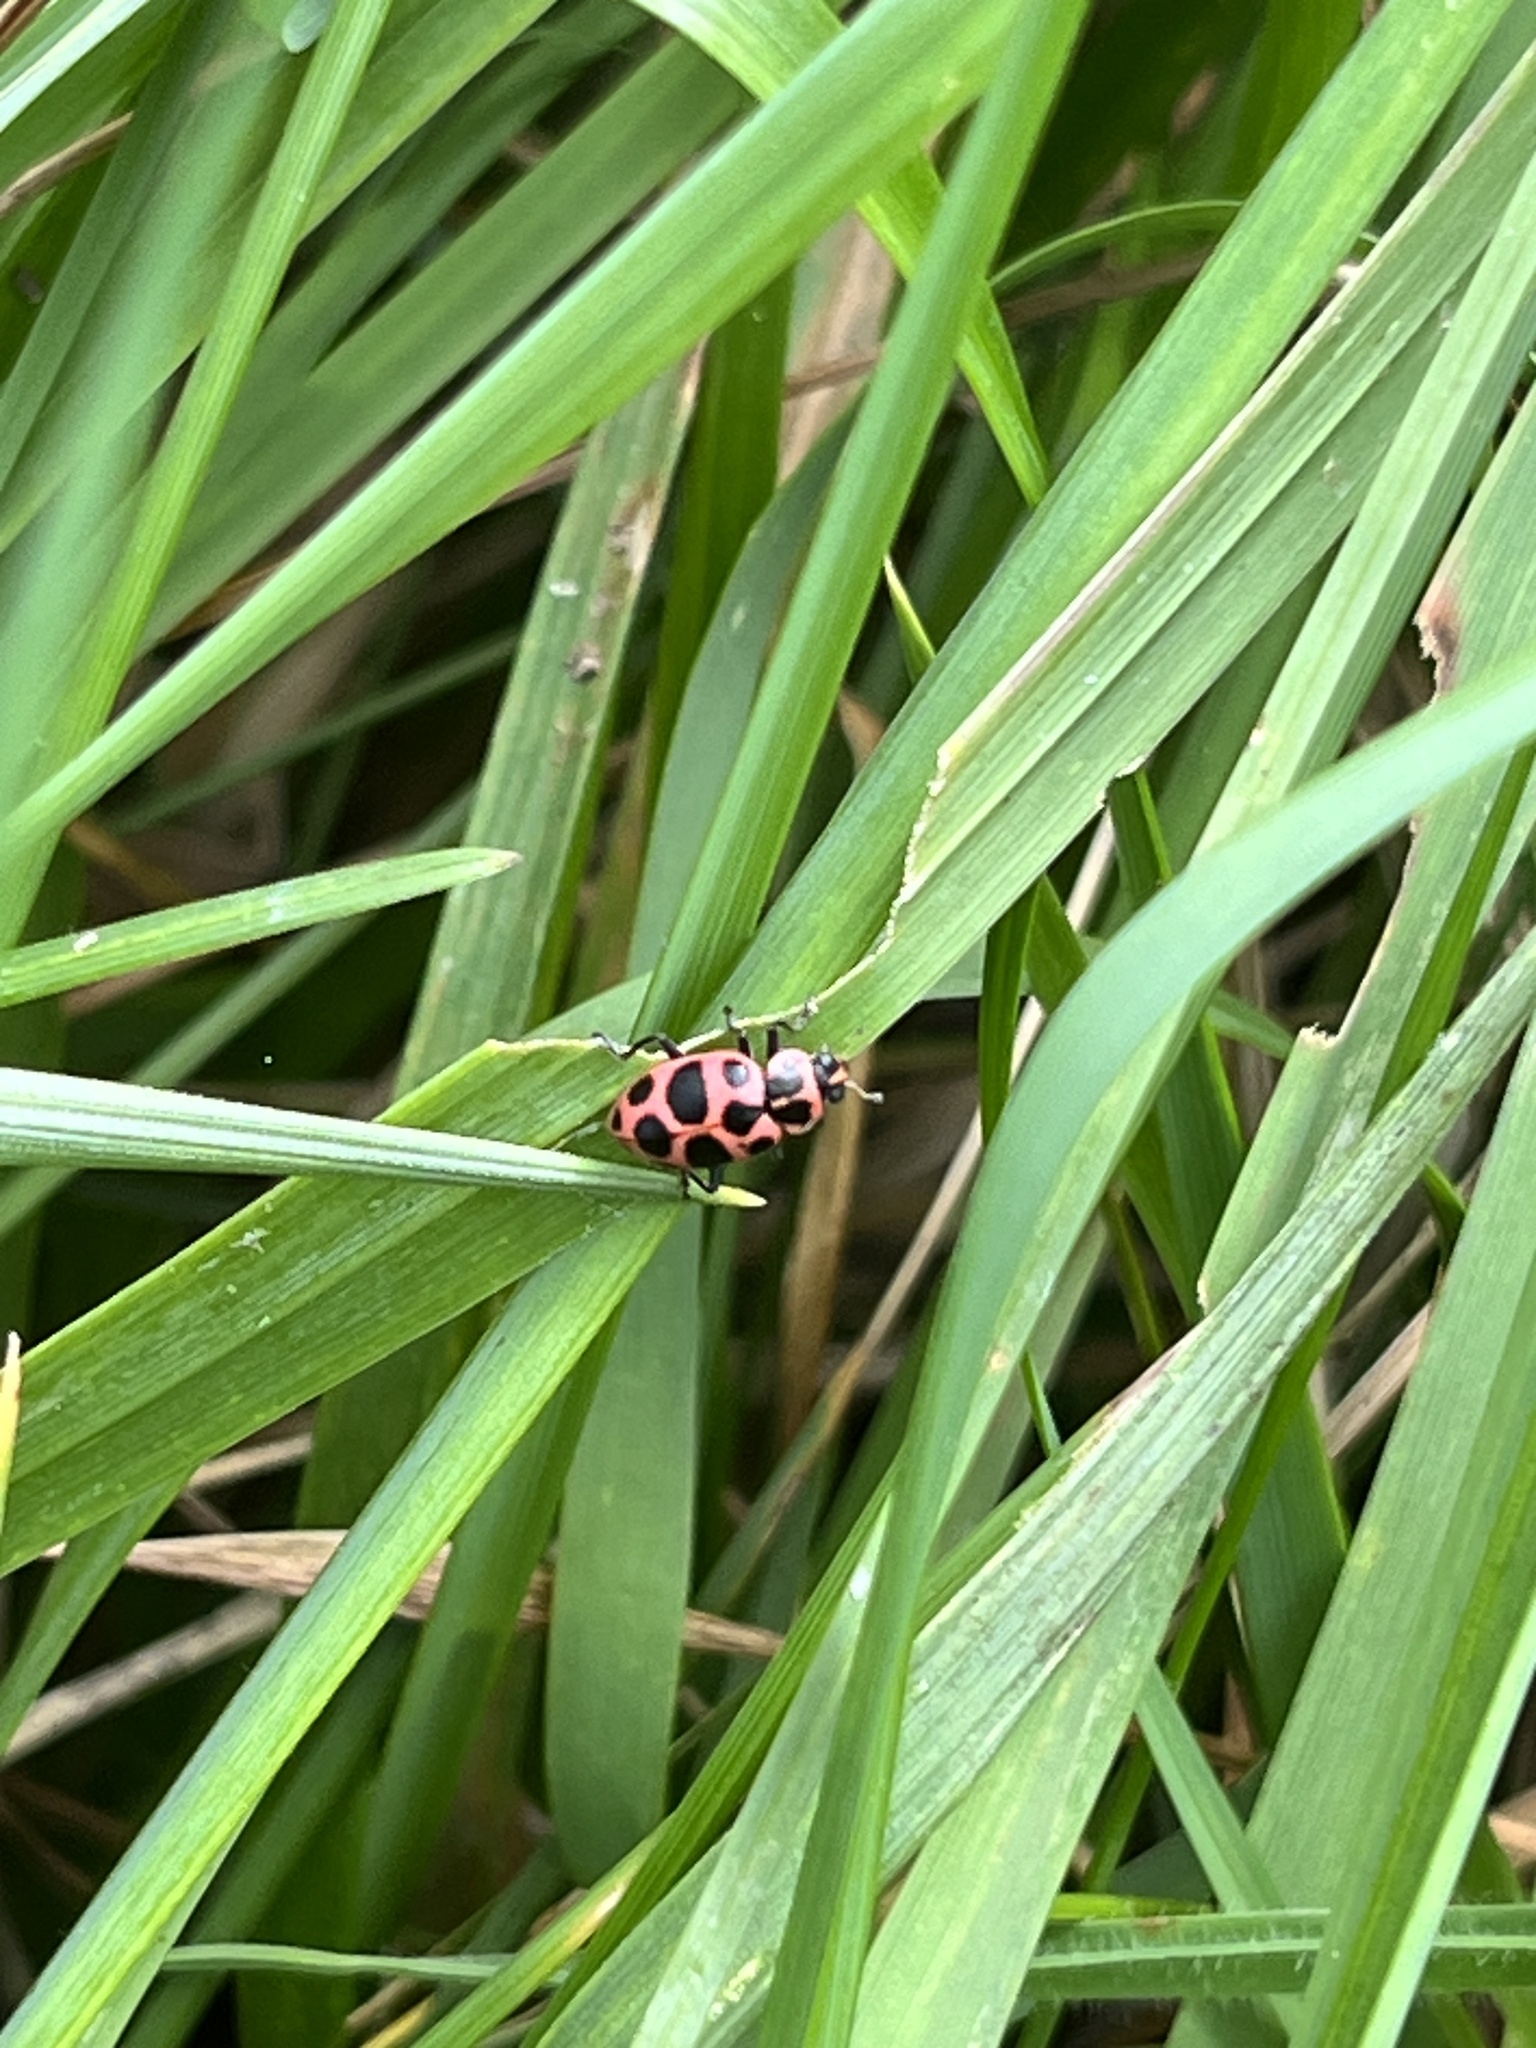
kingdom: Animalia
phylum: Arthropoda
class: Insecta
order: Coleoptera
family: Coccinellidae
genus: Coleomegilla
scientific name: Coleomegilla maculata
